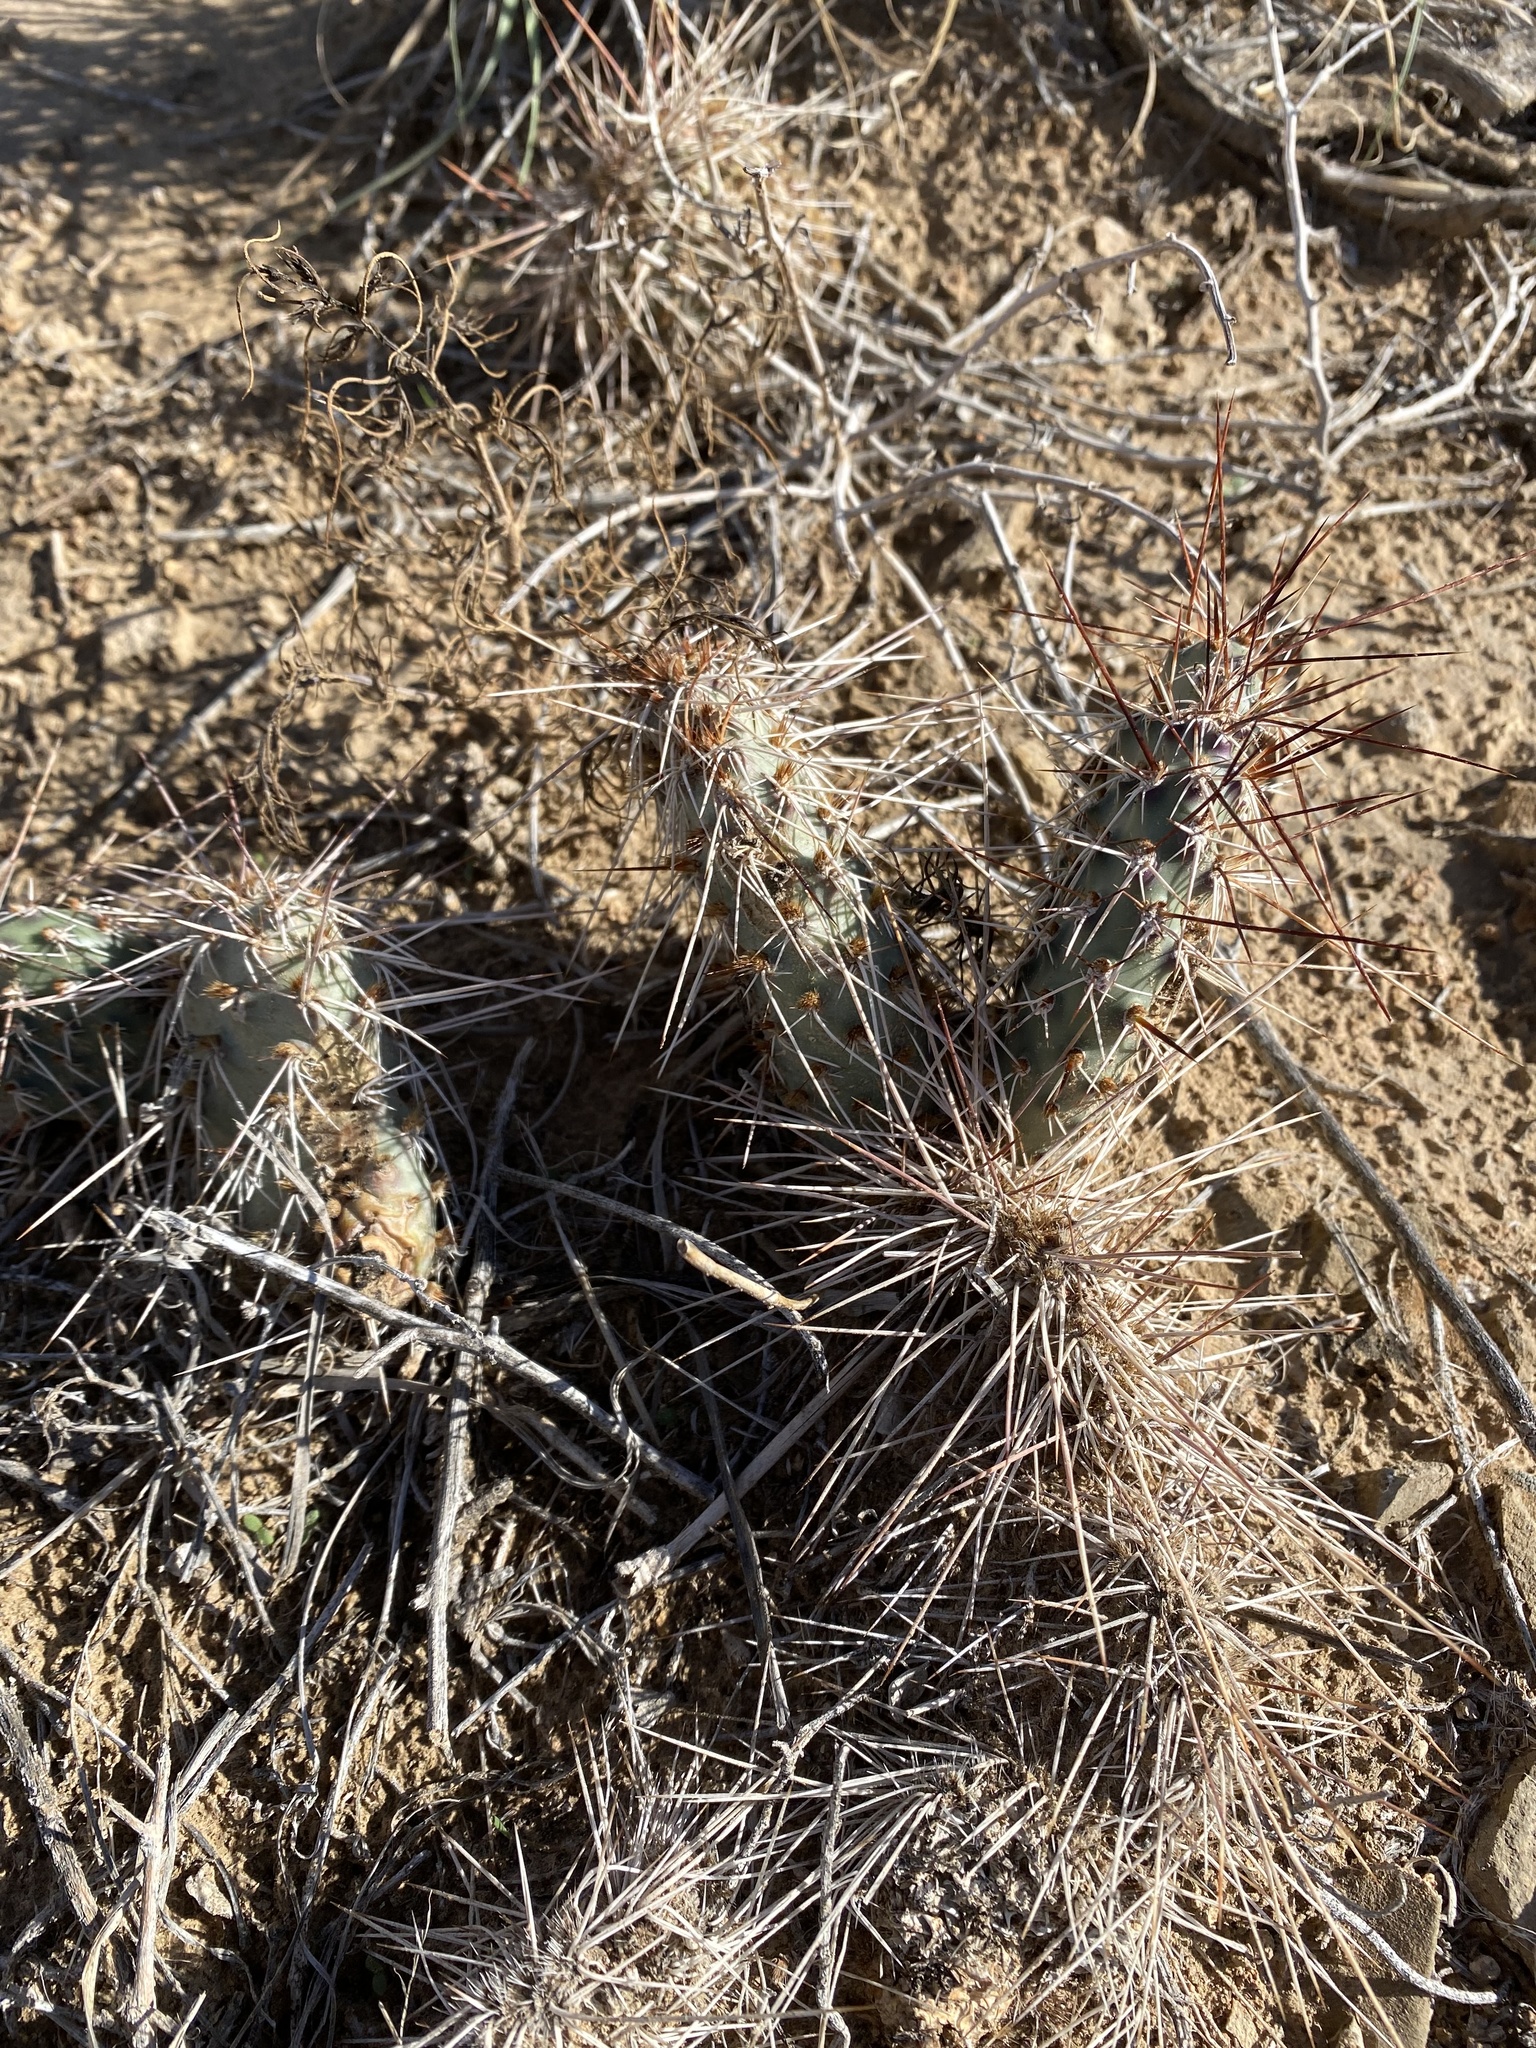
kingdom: Plantae
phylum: Tracheophyta
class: Magnoliopsida
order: Caryophyllales
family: Cactaceae
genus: Opuntia
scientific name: Opuntia polyacantha
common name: Plains prickly-pear
